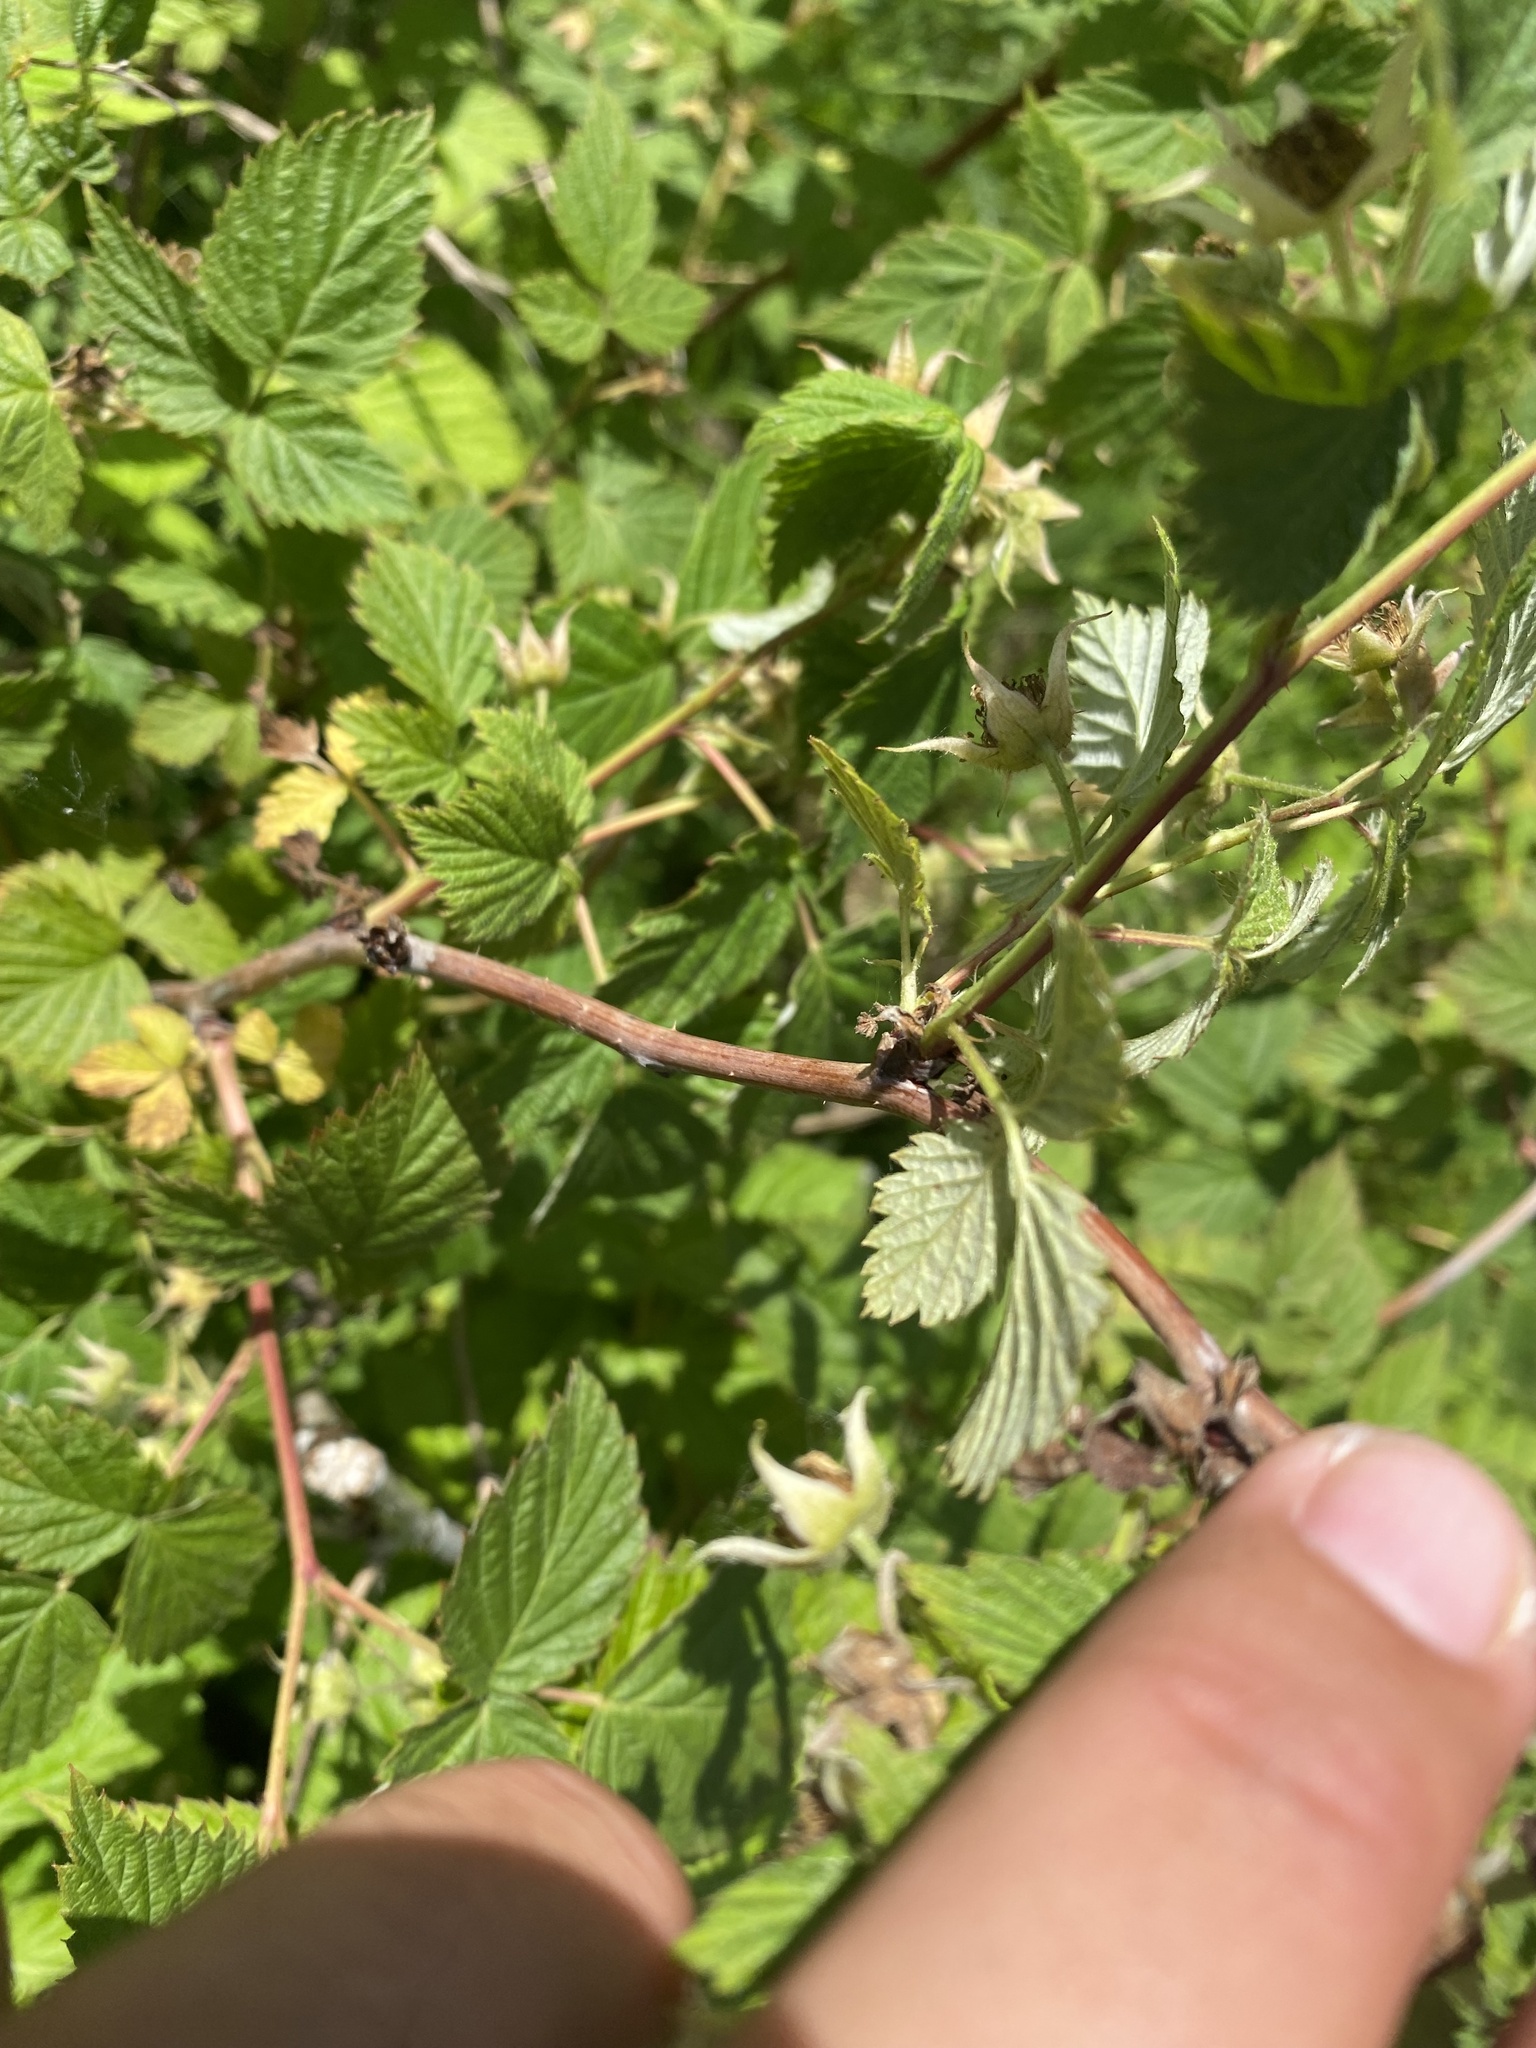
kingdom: Plantae
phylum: Tracheophyta
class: Magnoliopsida
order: Rosales
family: Rosaceae
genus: Rubus
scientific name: Rubus idaeus
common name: Raspberry
